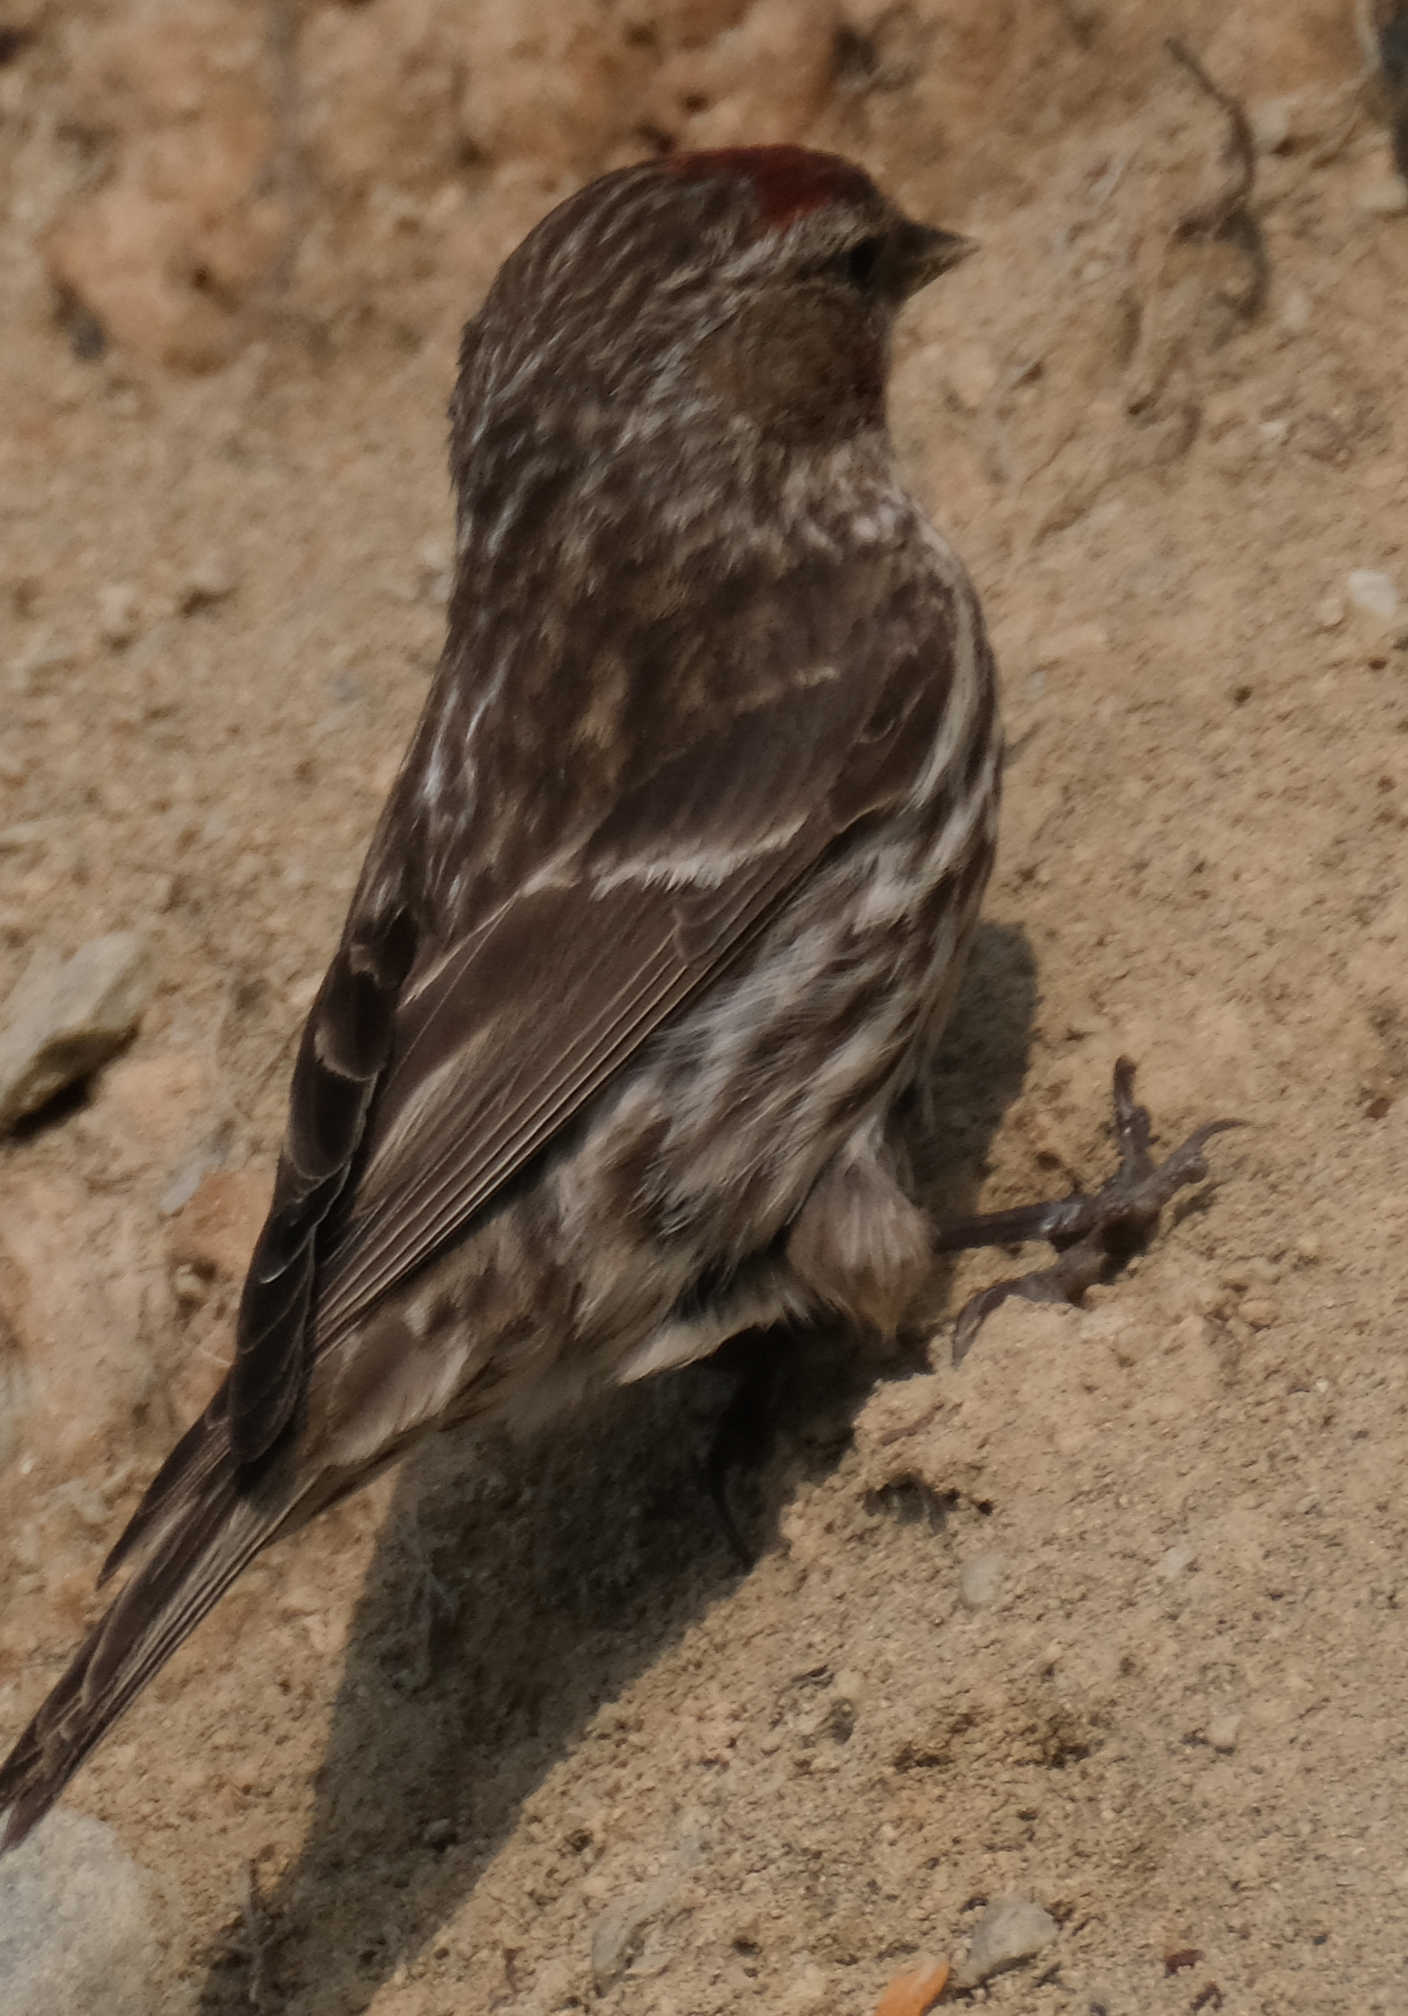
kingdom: Animalia
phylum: Chordata
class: Aves
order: Passeriformes
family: Fringillidae
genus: Acanthis
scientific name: Acanthis flammea
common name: Common redpoll
